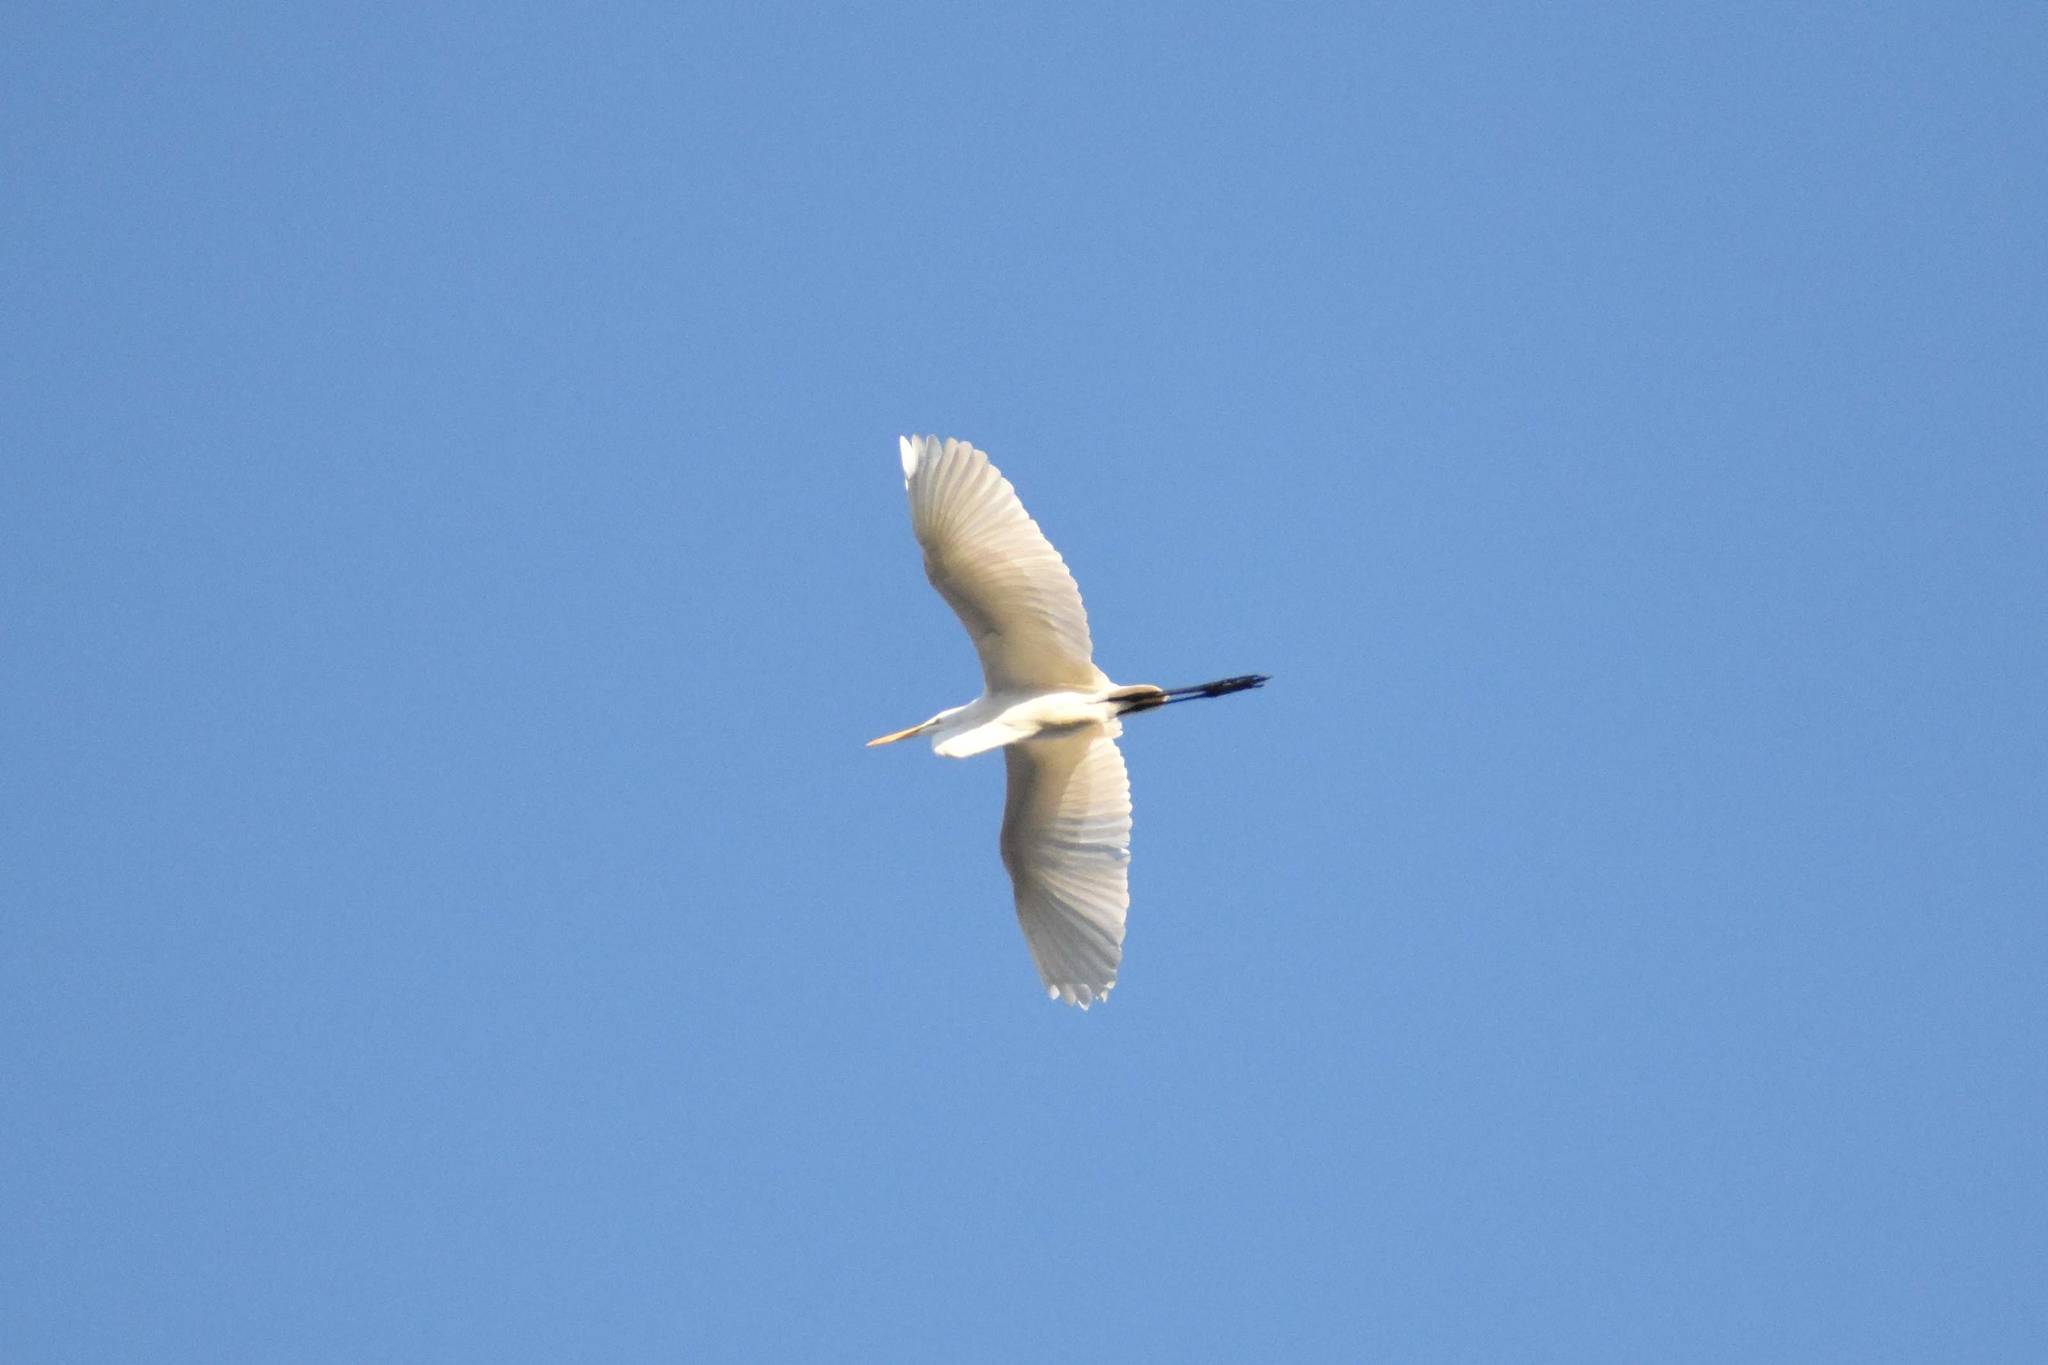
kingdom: Animalia
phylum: Chordata
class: Aves
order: Pelecaniformes
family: Ardeidae
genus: Ardea
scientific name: Ardea alba
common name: Great egret
